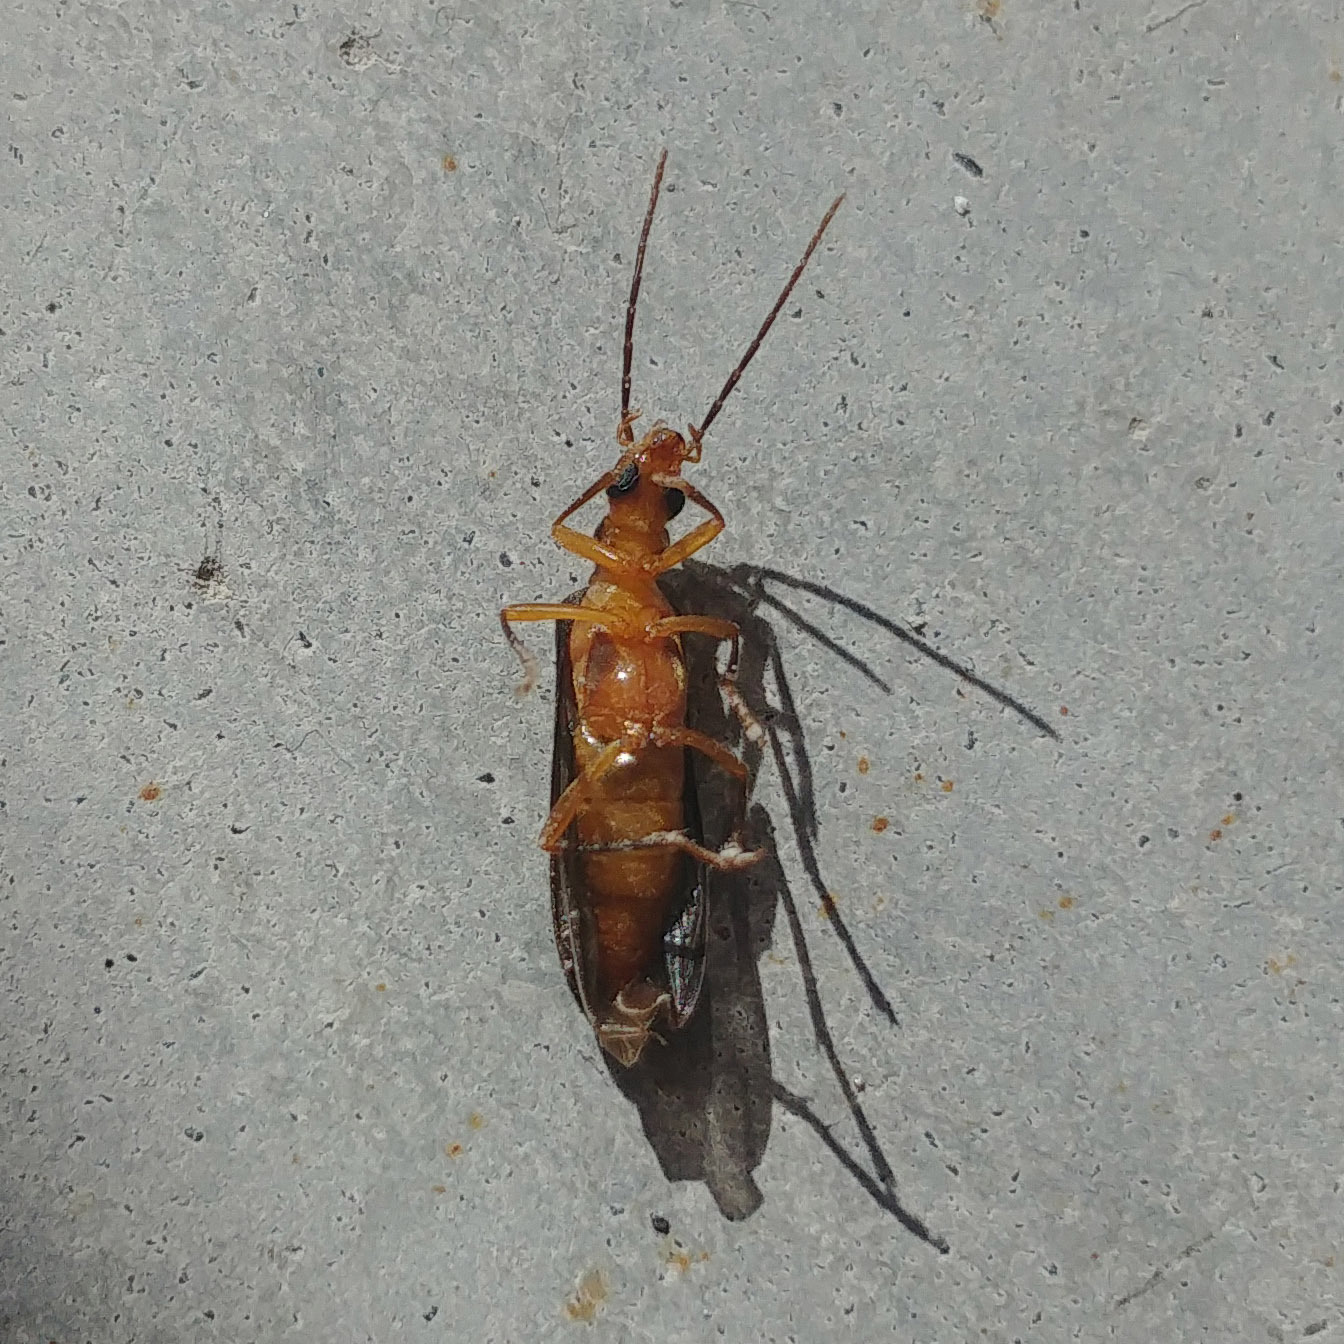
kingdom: Animalia
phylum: Arthropoda
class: Insecta
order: Coleoptera
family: Oedemeridae
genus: Nacerdes
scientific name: Nacerdes carniolica
